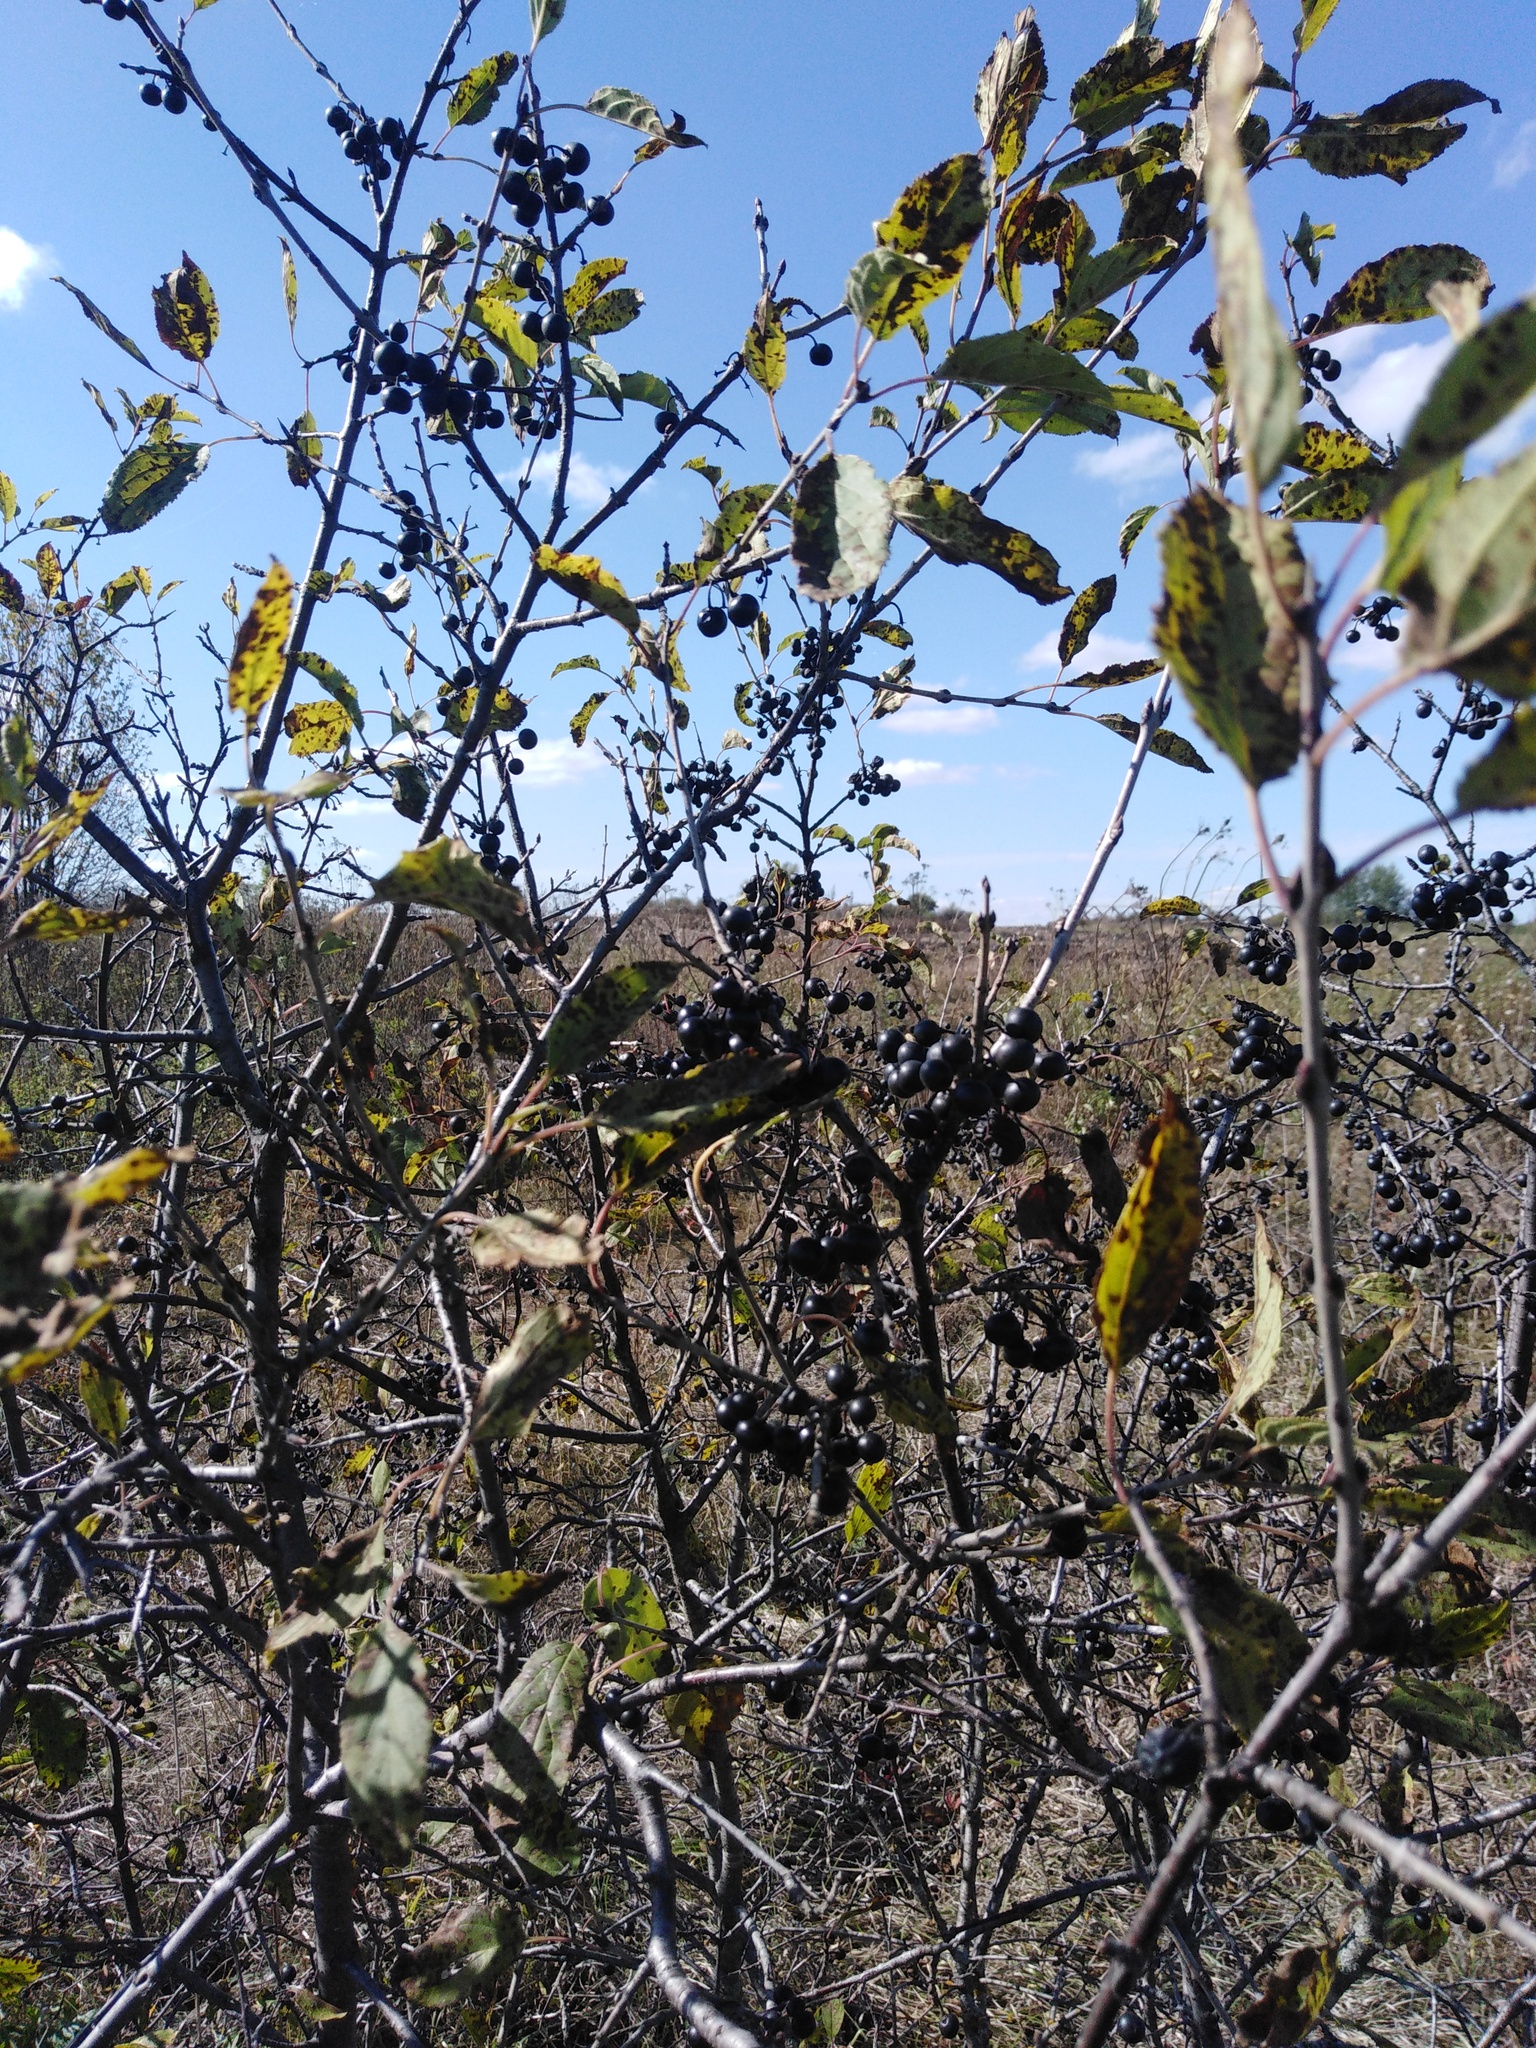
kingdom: Plantae
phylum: Tracheophyta
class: Magnoliopsida
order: Rosales
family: Rhamnaceae
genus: Rhamnus
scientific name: Rhamnus cathartica
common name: Common buckthorn
